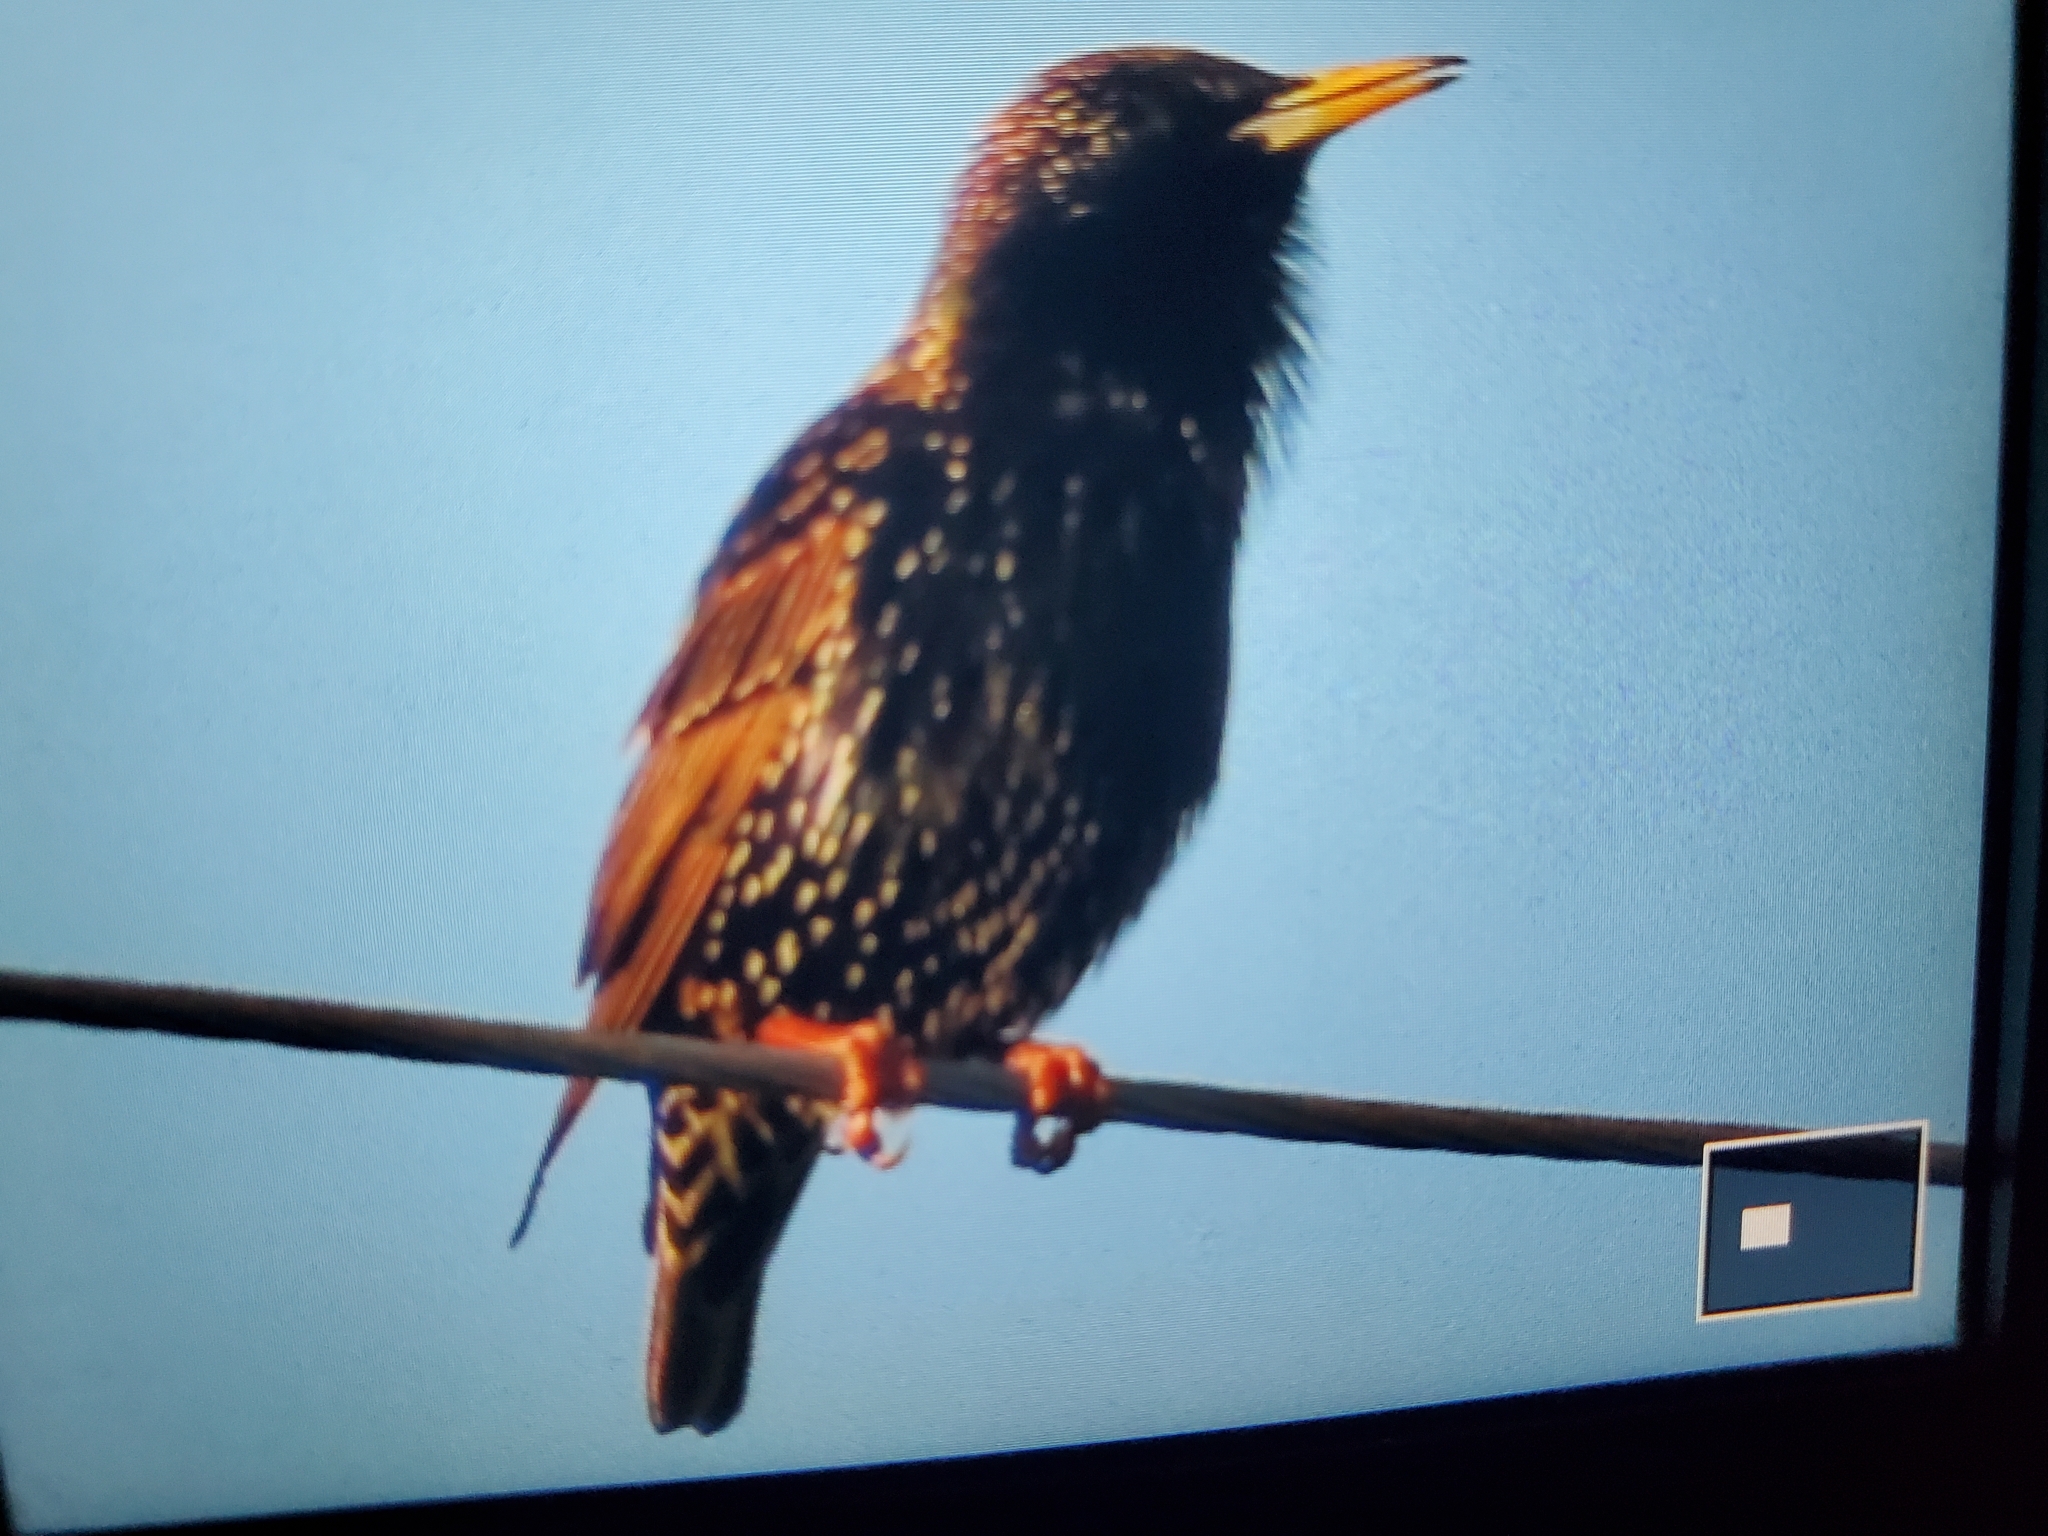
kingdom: Animalia
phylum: Chordata
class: Aves
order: Passeriformes
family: Sturnidae
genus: Sturnus
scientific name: Sturnus vulgaris
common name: Common starling
